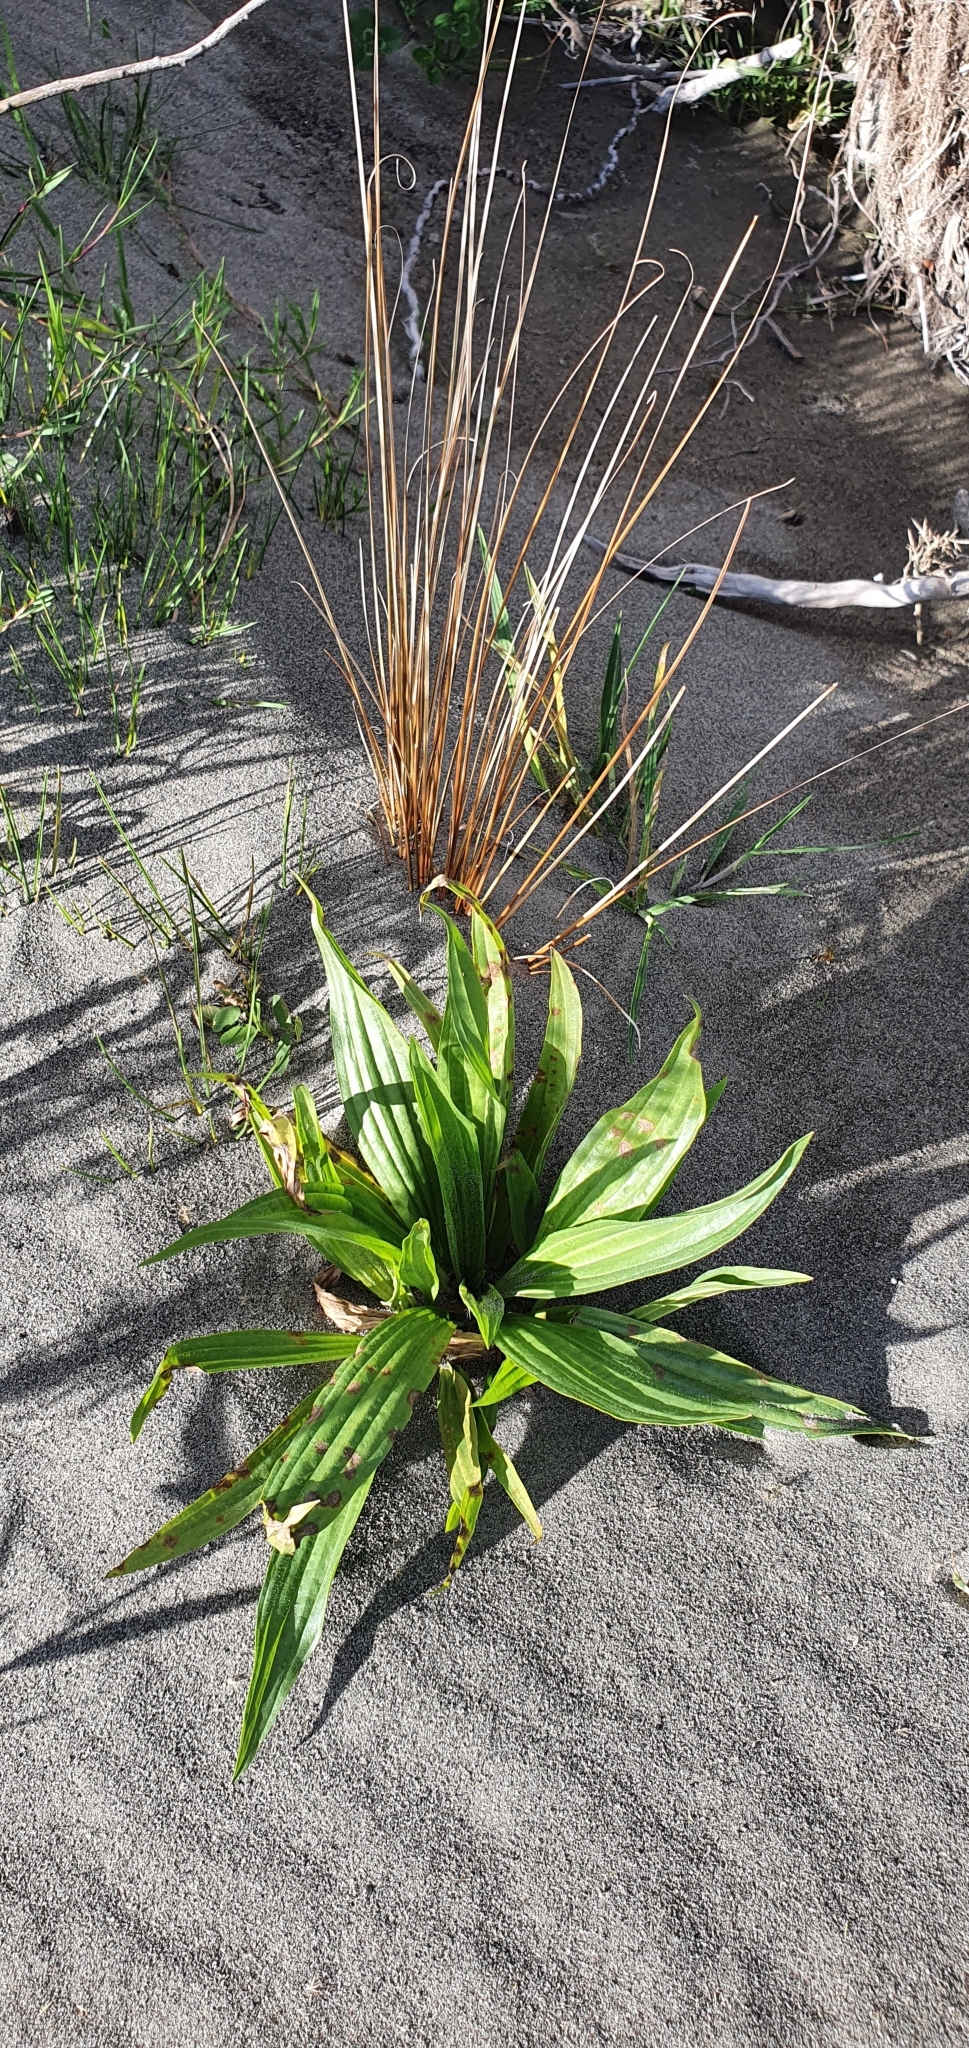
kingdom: Plantae
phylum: Tracheophyta
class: Magnoliopsida
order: Lamiales
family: Plantaginaceae
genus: Plantago
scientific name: Plantago lanceolata
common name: Ribwort plantain
